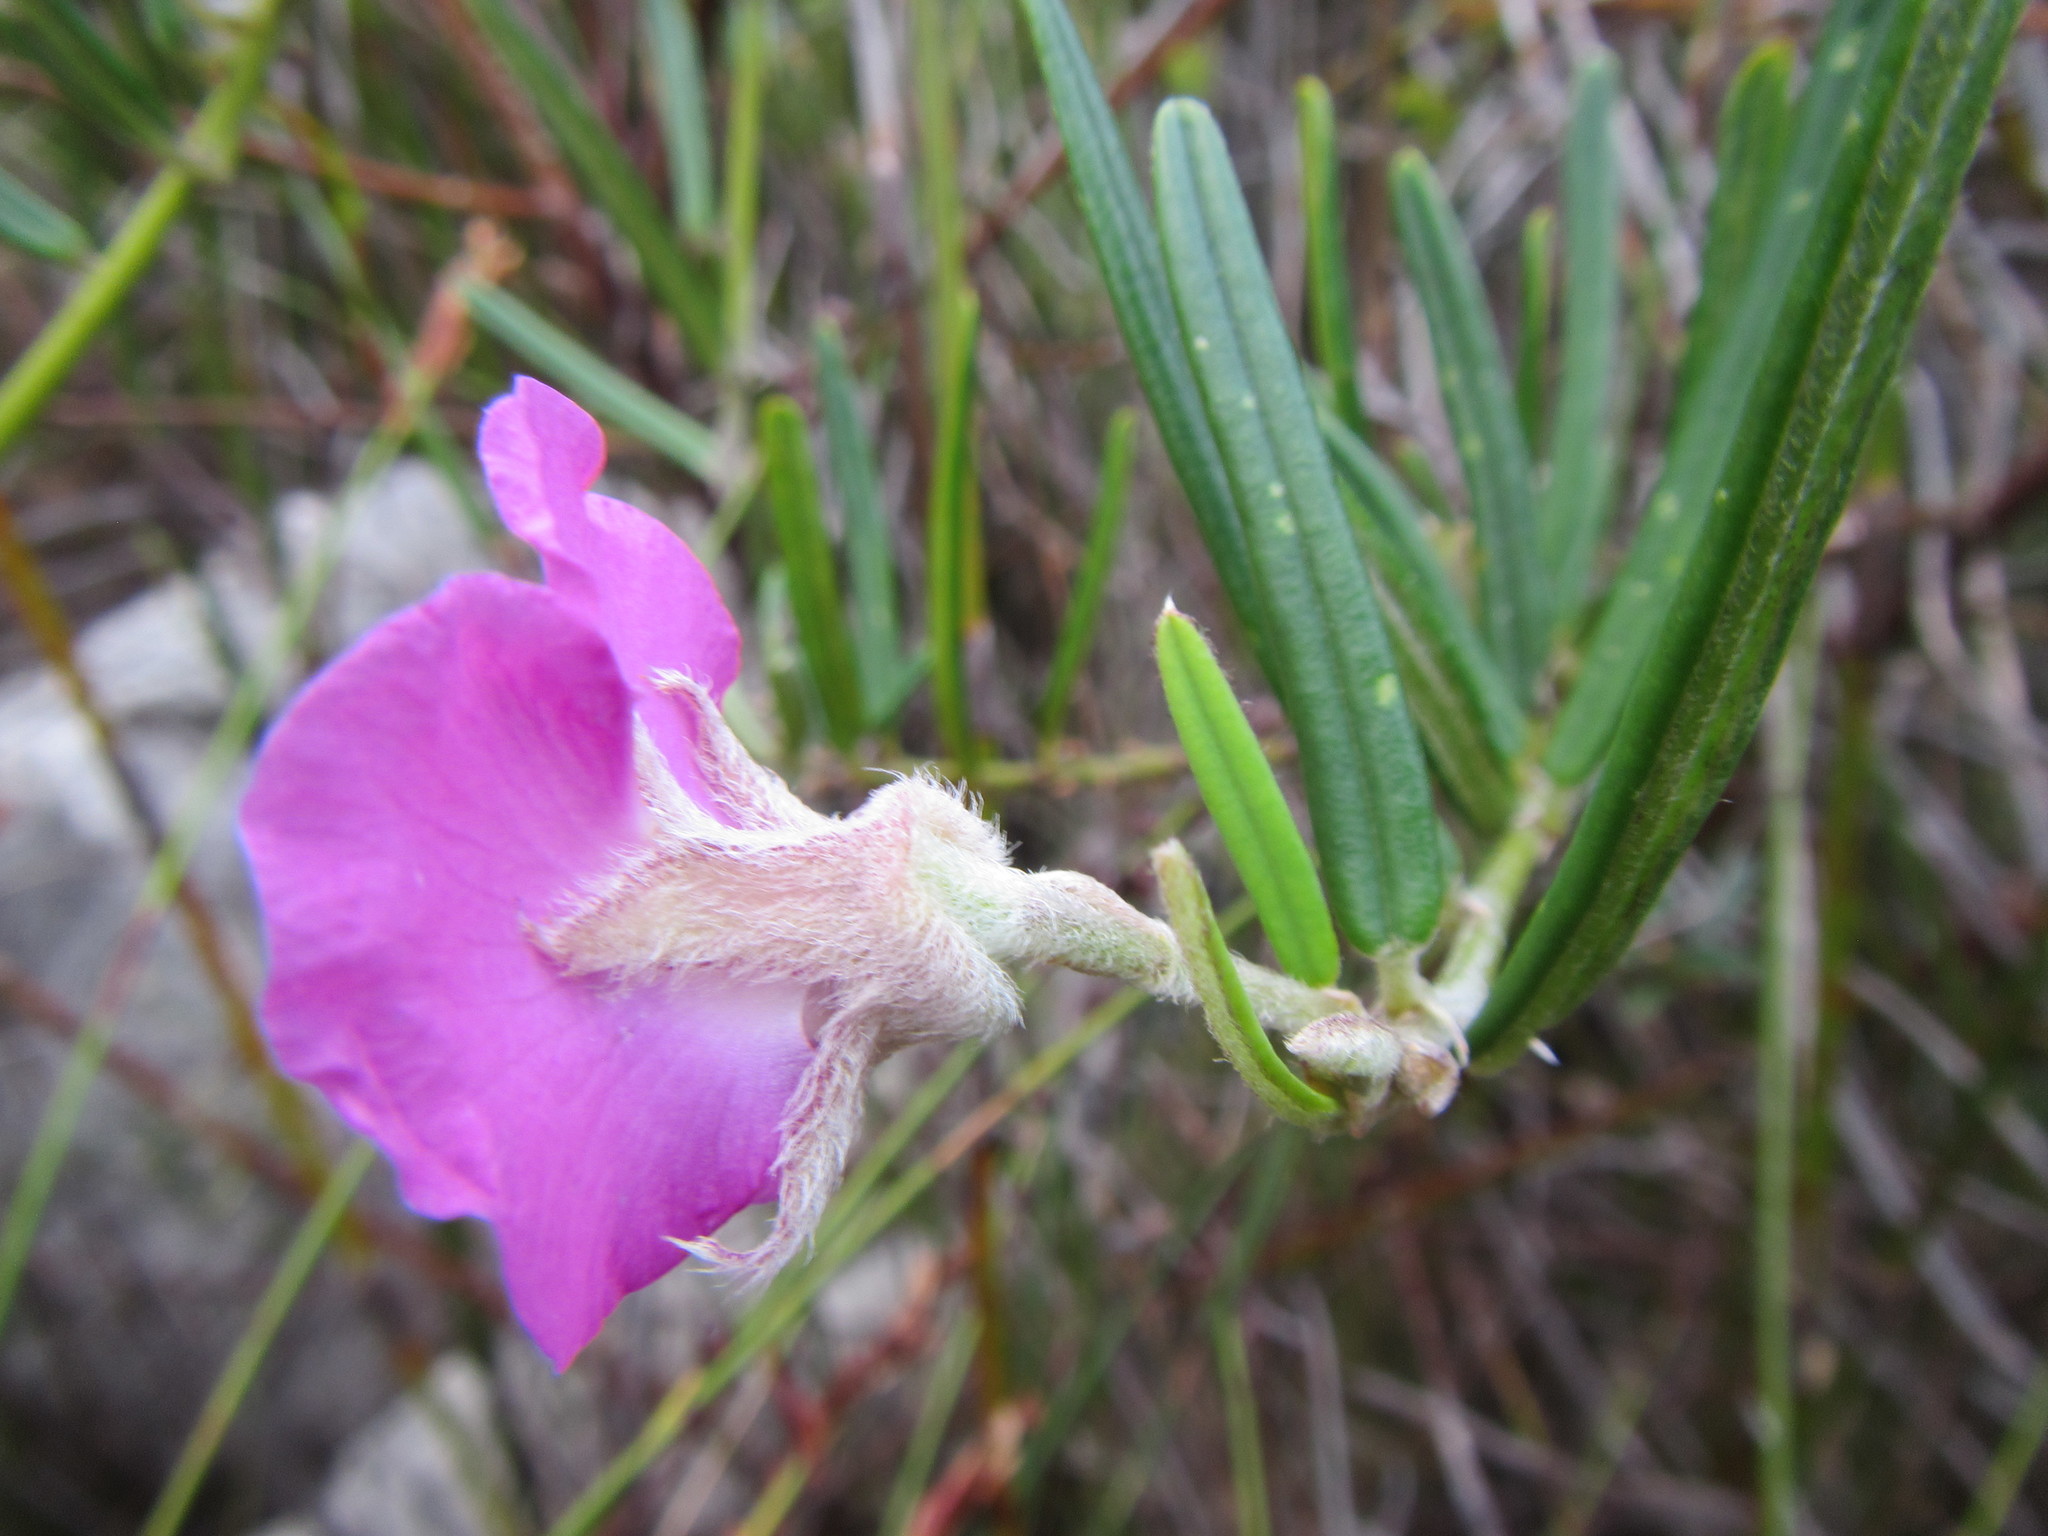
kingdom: Plantae
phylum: Tracheophyta
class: Magnoliopsida
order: Fabales
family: Fabaceae
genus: Podalyria
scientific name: Podalyria oleifolia
